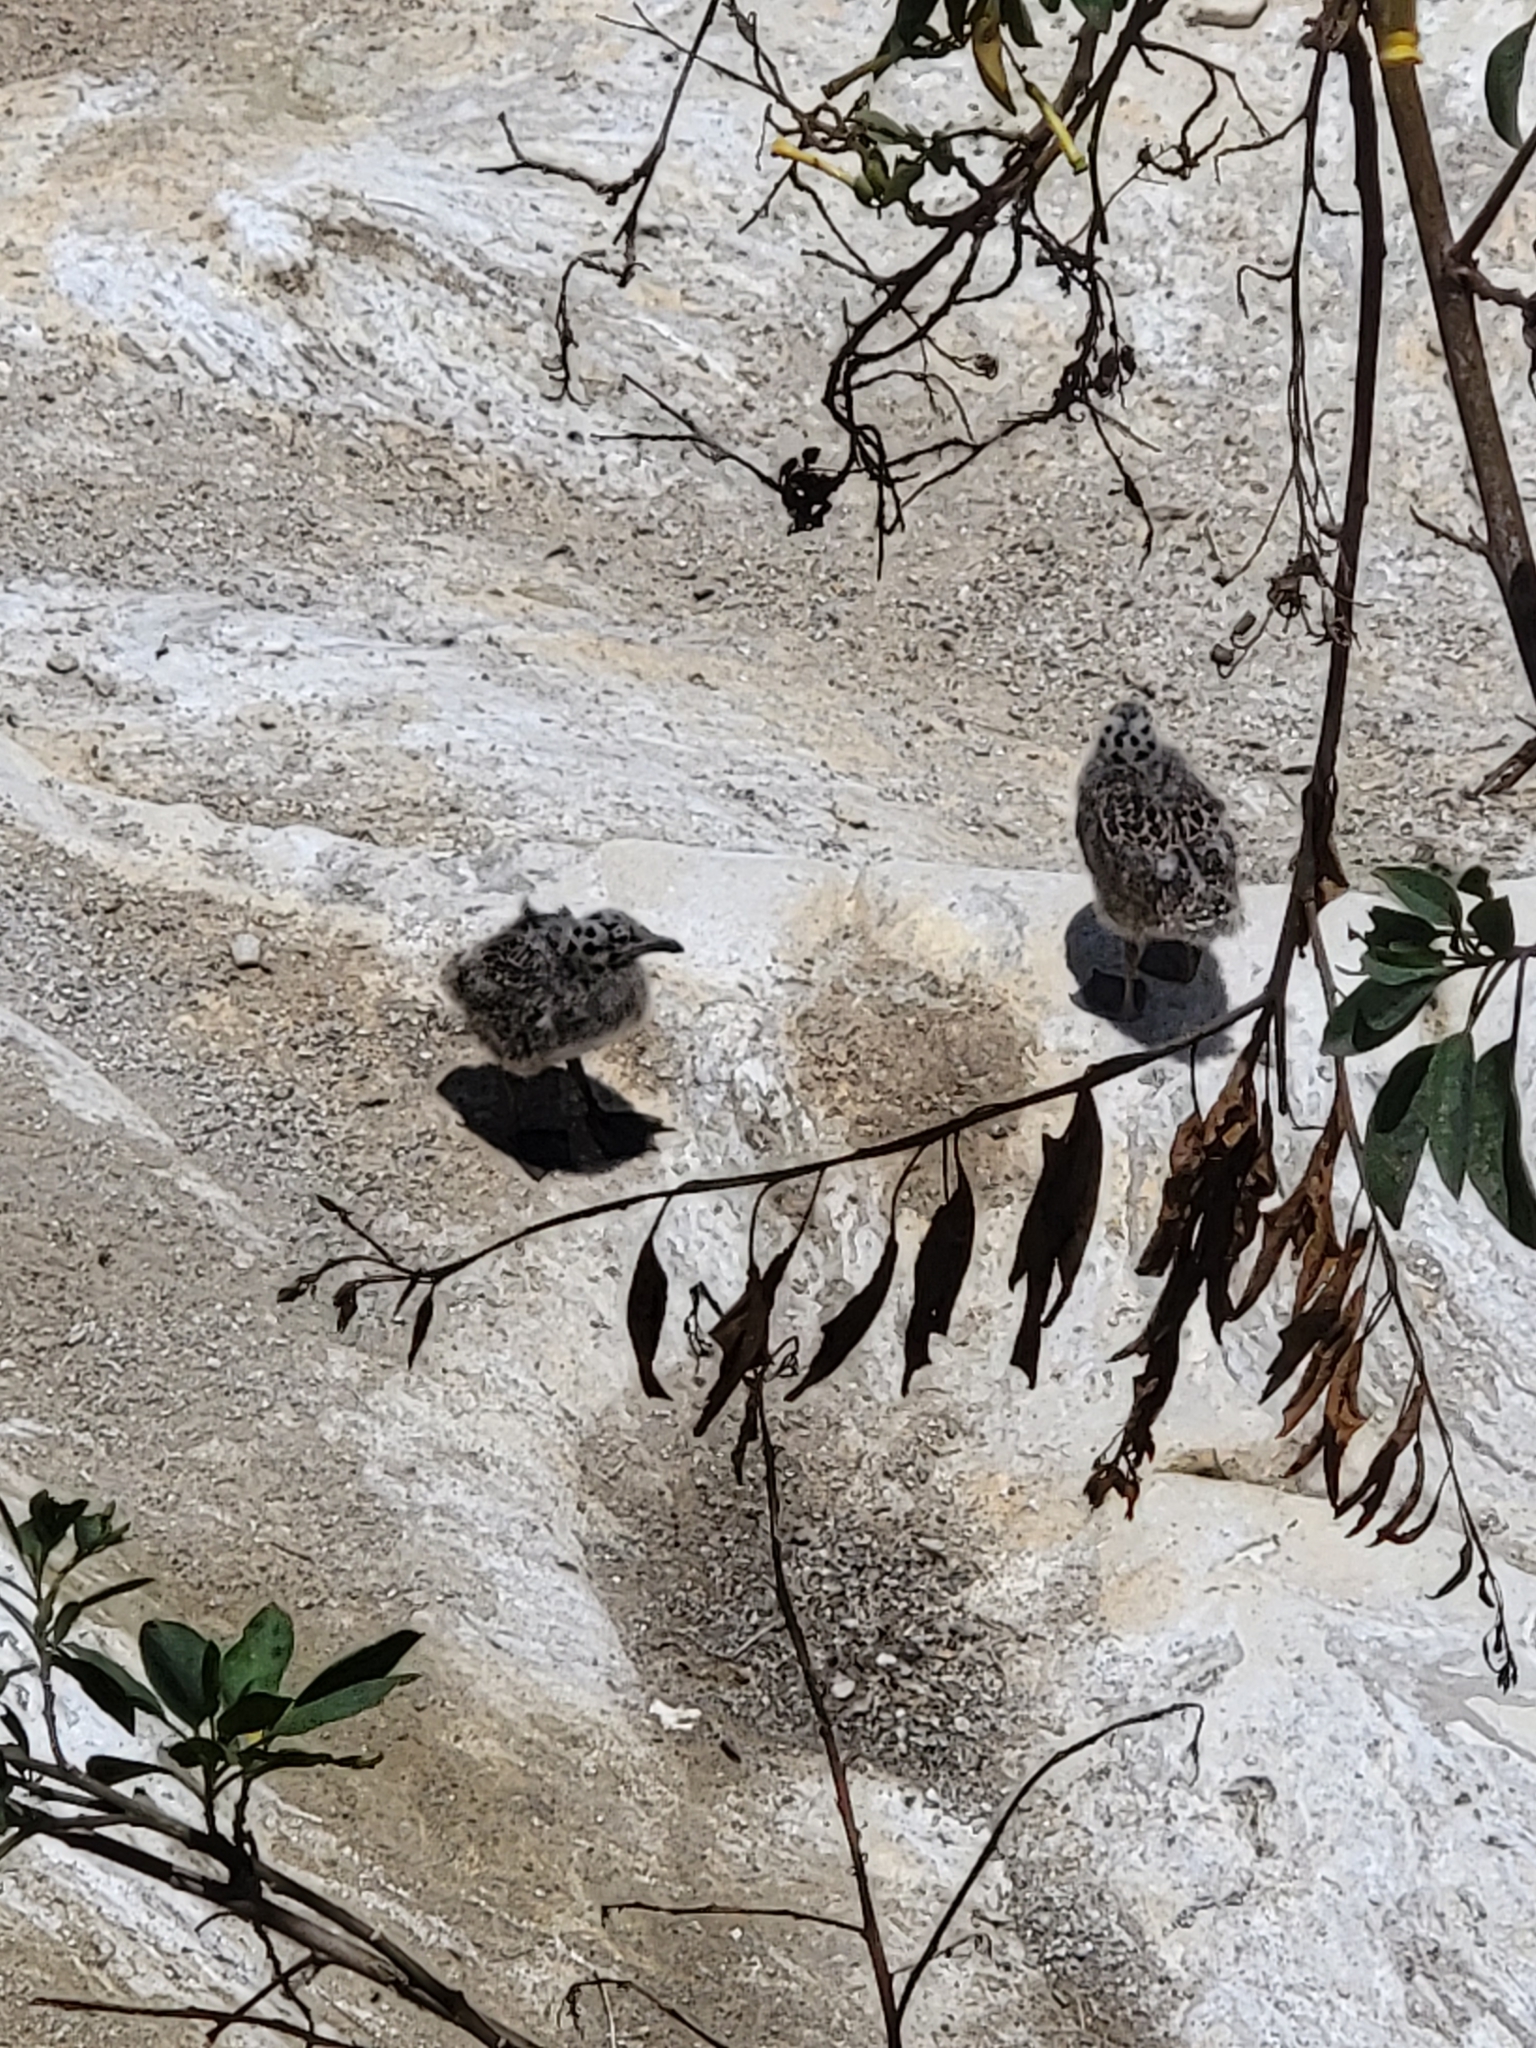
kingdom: Animalia
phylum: Chordata
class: Aves
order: Charadriiformes
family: Laridae
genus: Larus
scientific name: Larus occidentalis
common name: Western gull
